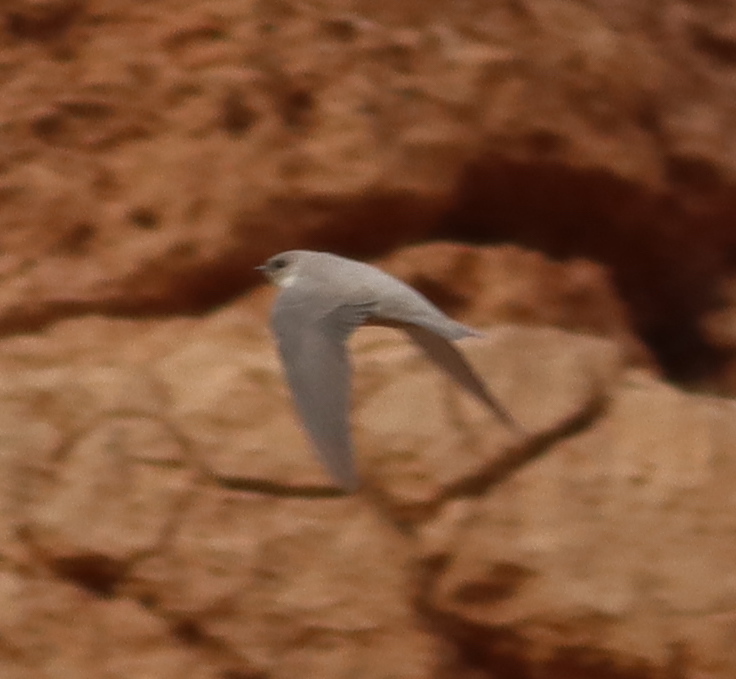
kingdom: Animalia
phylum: Chordata
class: Aves
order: Passeriformes
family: Hirundinidae
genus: Ptyonoprogne
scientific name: Ptyonoprogne rupestris
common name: Eurasian crag martin
